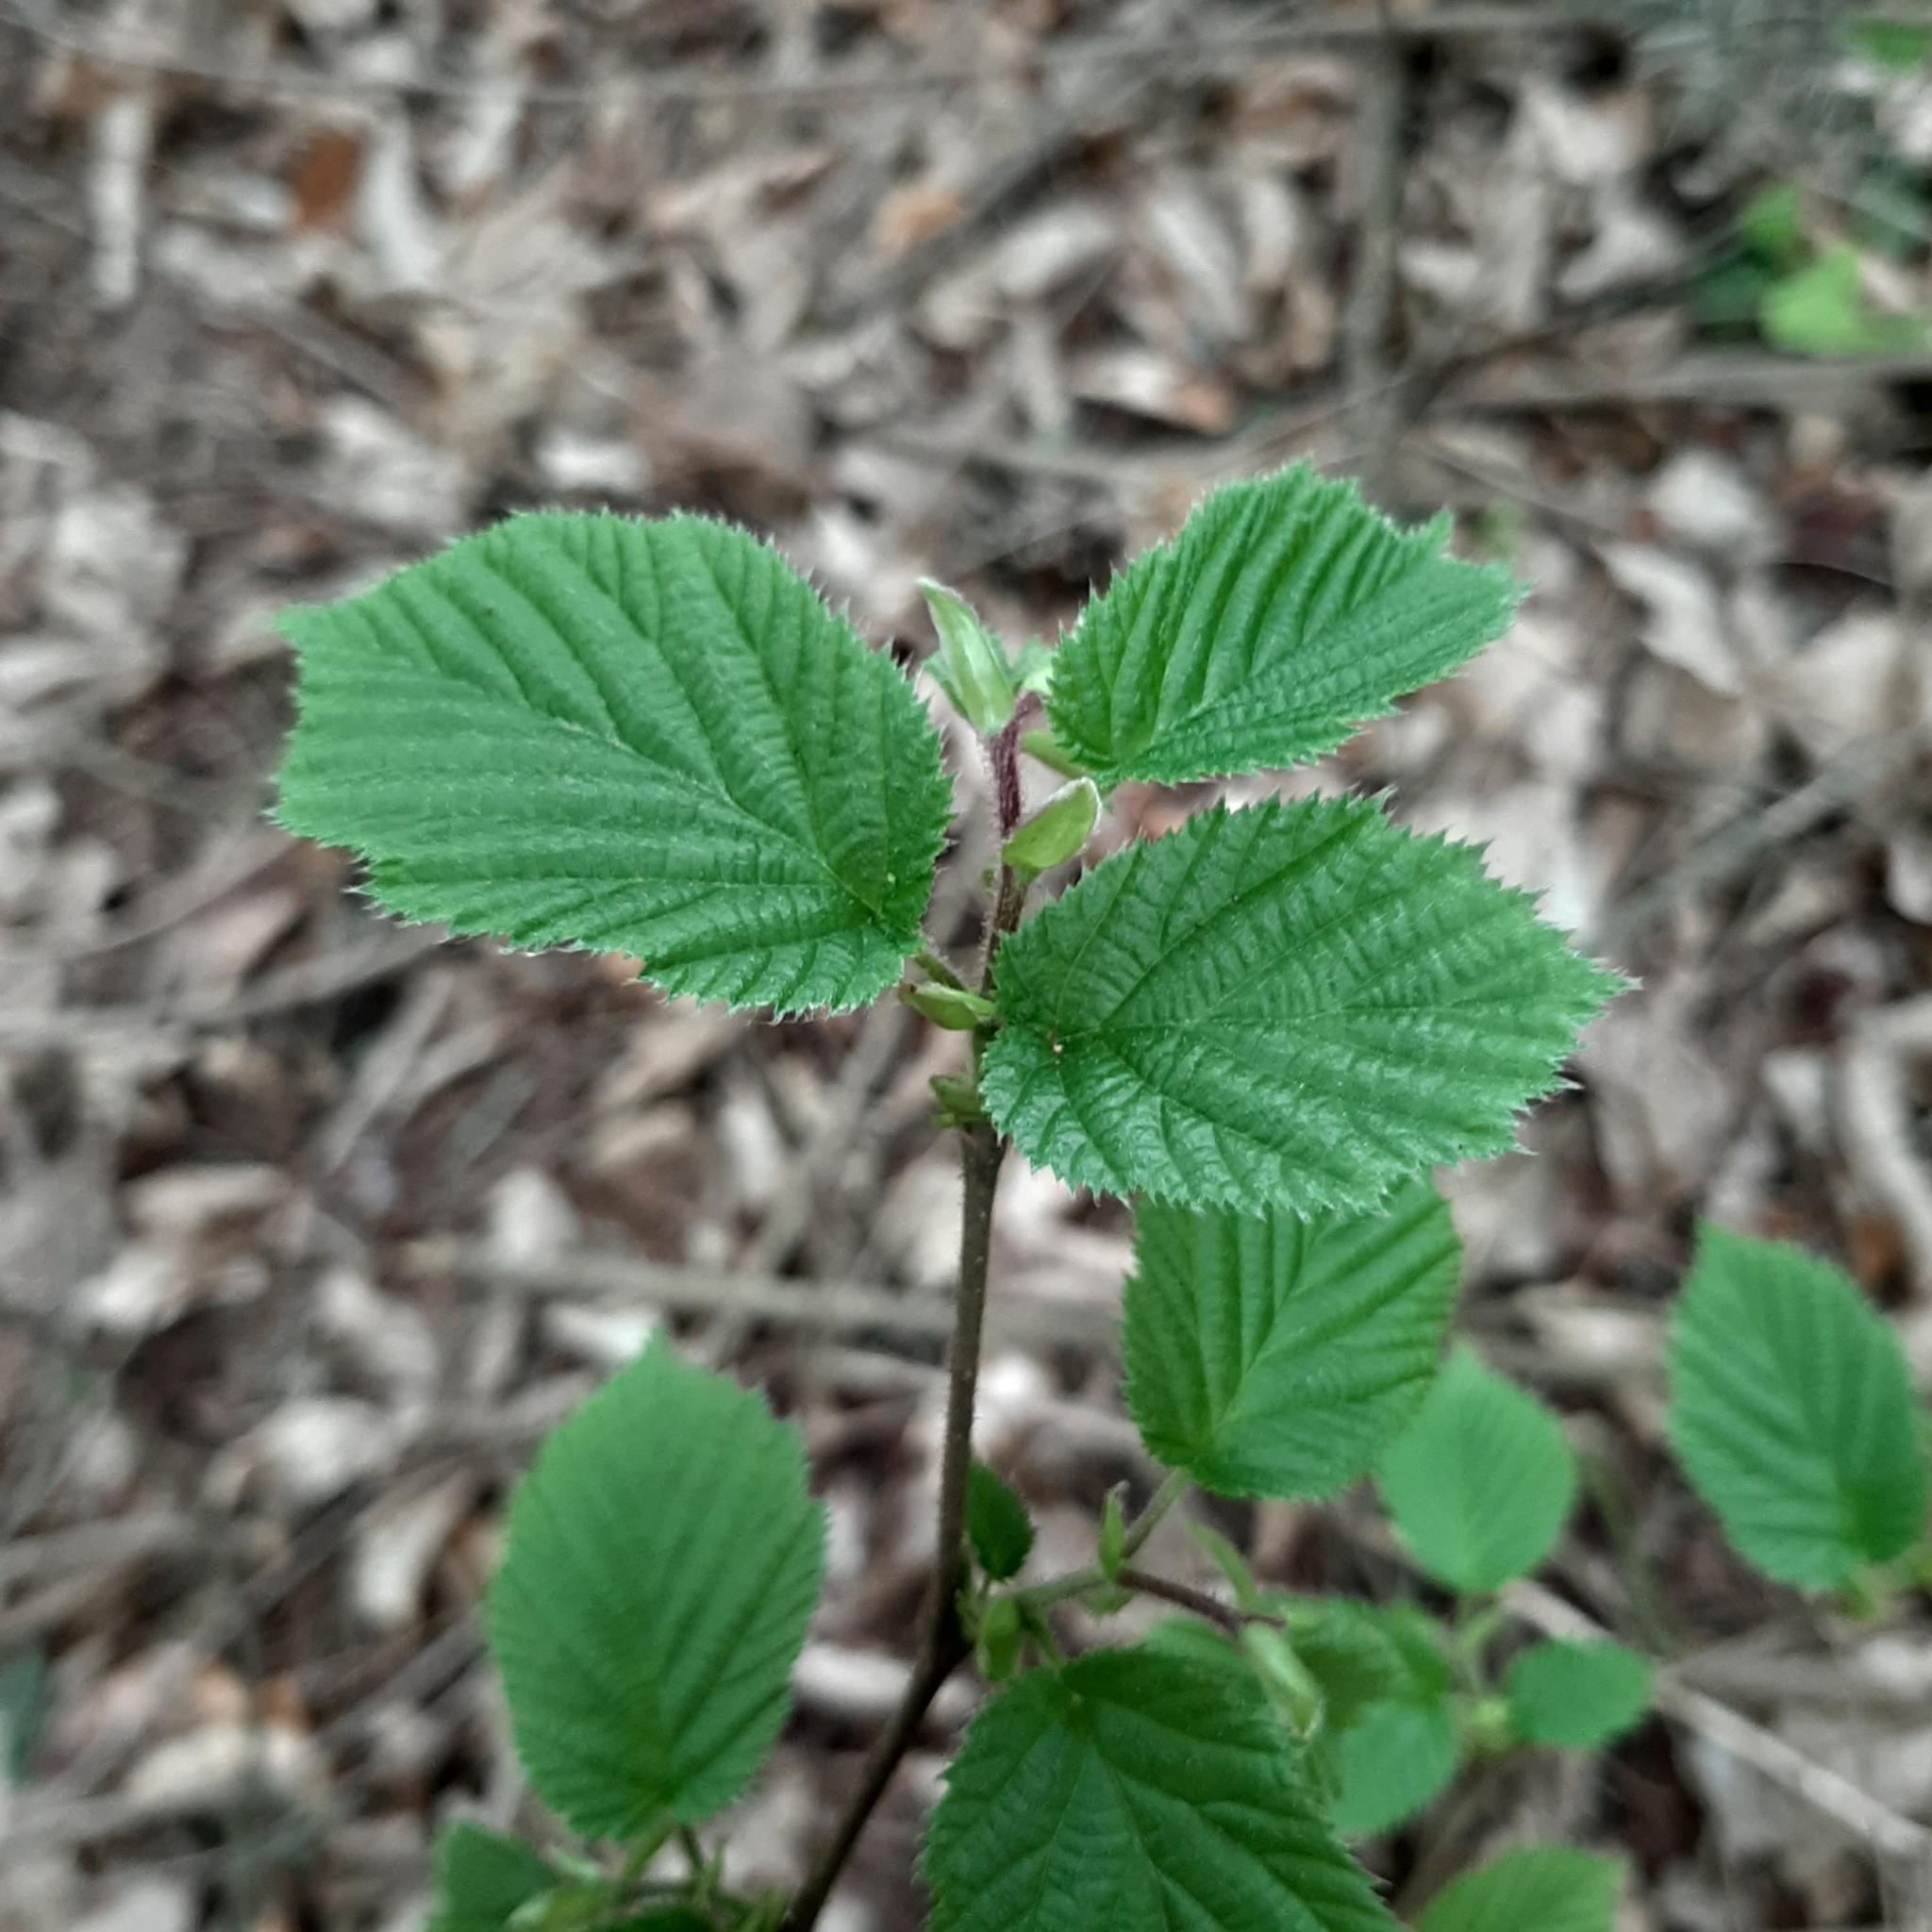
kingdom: Plantae
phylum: Tracheophyta
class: Magnoliopsida
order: Fagales
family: Betulaceae
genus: Corylus
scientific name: Corylus avellana
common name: European hazel
